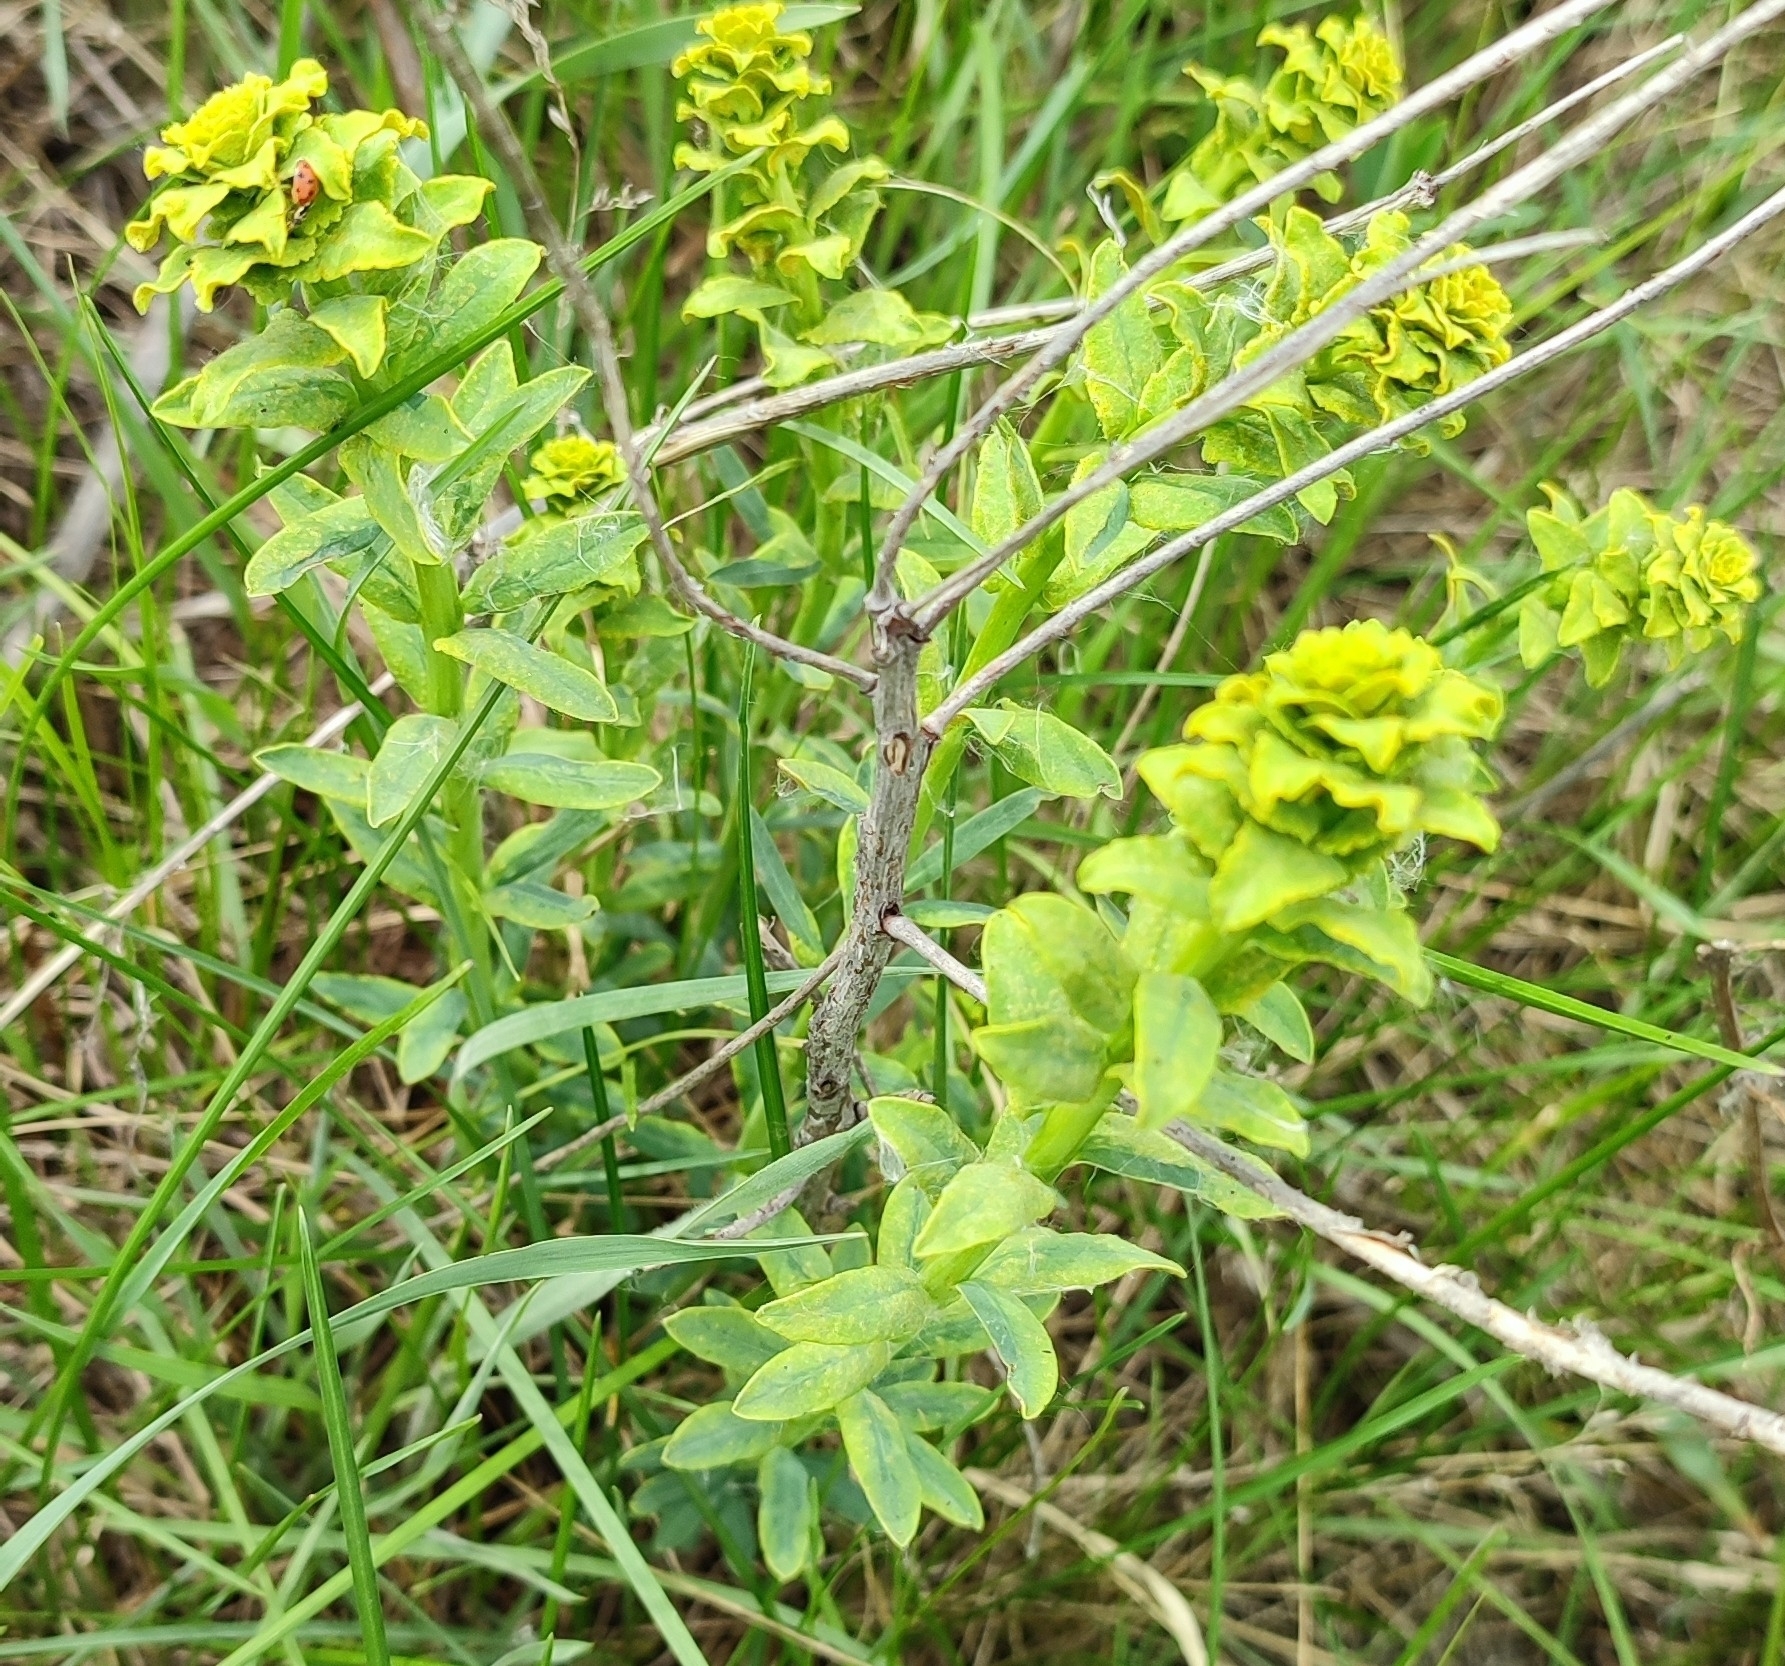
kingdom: Plantae
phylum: Tracheophyta
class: Magnoliopsida
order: Malpighiales
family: Euphorbiaceae
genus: Euphorbia
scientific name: Euphorbia virgata
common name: Leafy spurge
